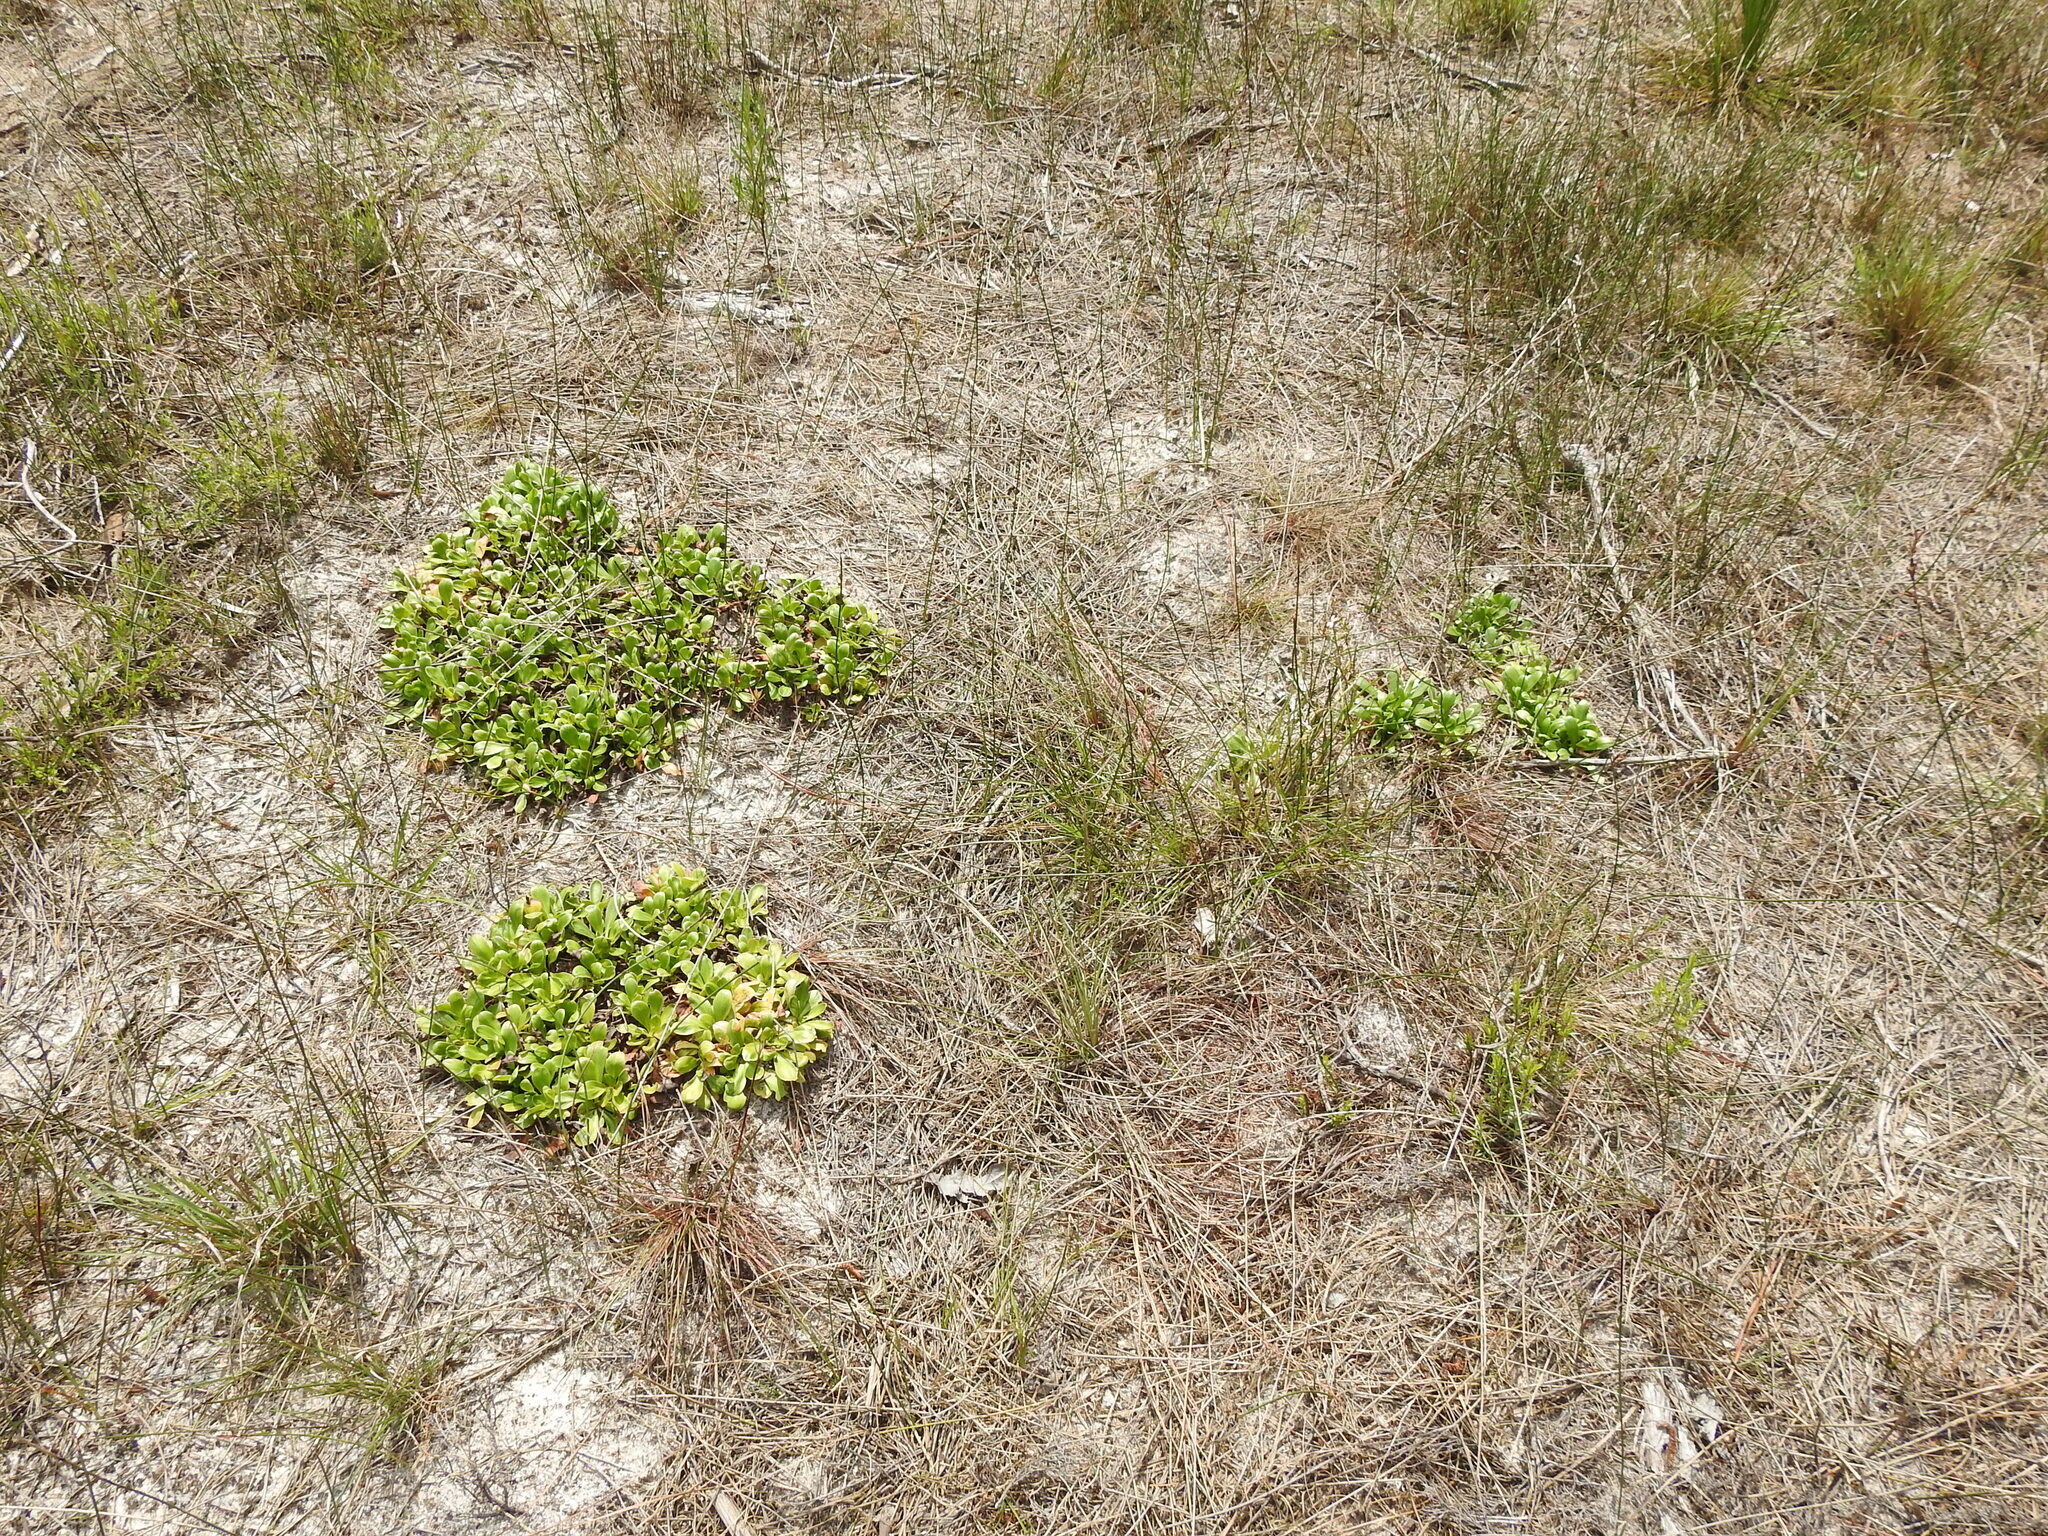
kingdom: Plantae
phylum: Tracheophyta
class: Magnoliopsida
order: Asterales
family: Stylidiaceae
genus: Stylidium
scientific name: Stylidium ornatum
